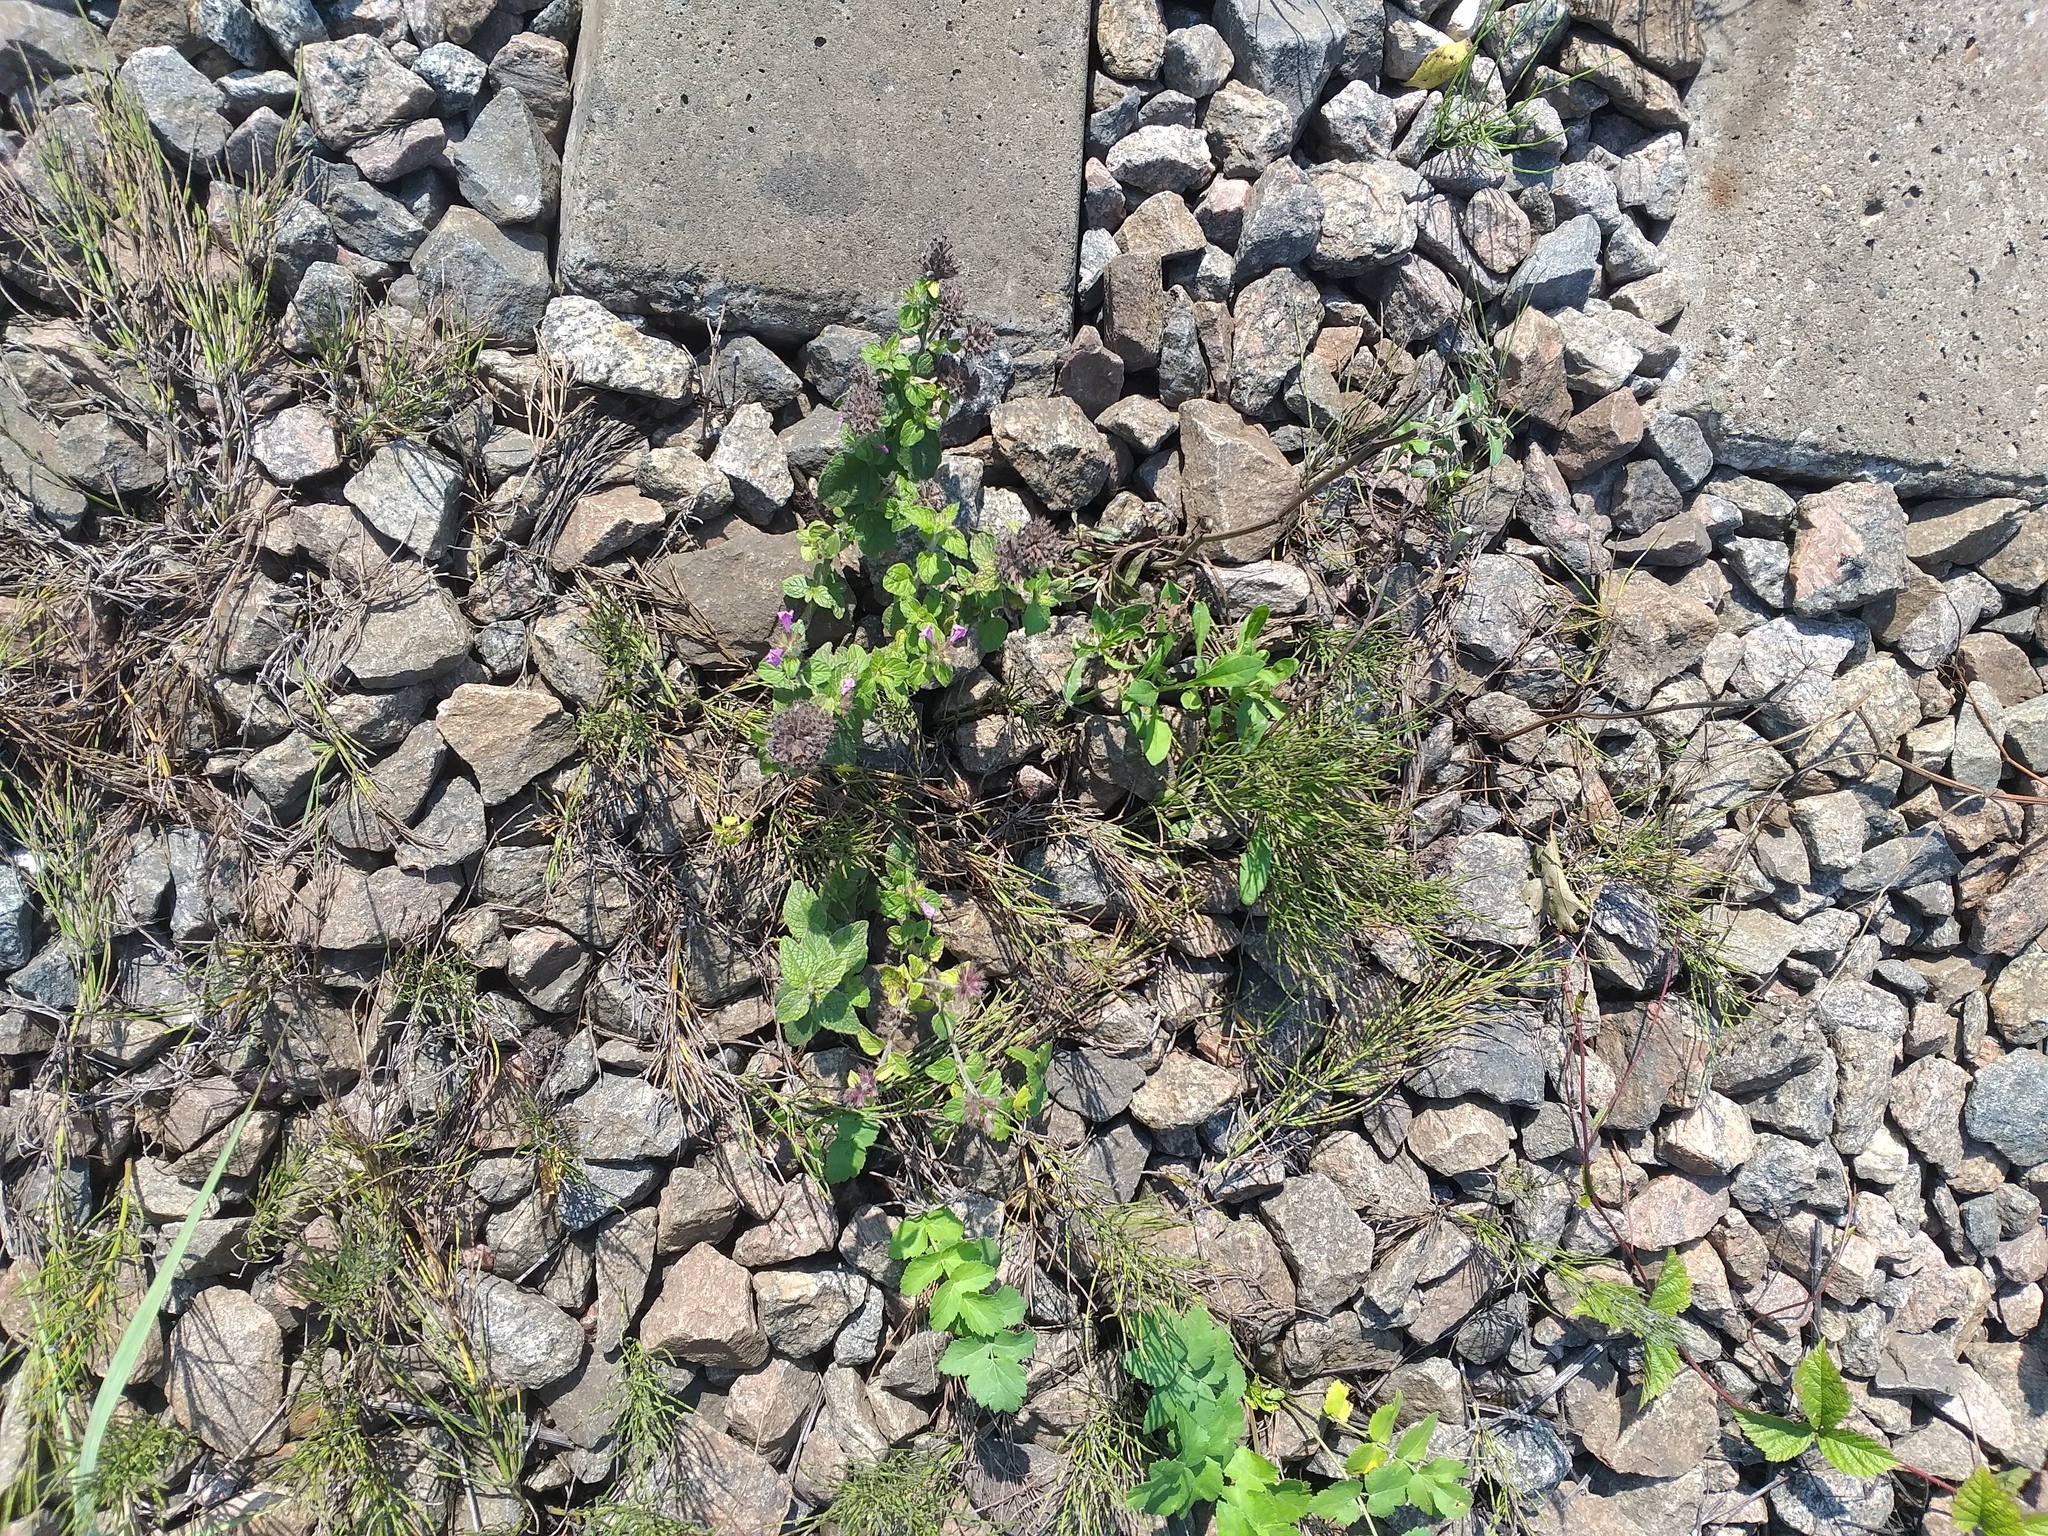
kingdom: Plantae
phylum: Tracheophyta
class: Magnoliopsida
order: Lamiales
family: Lamiaceae
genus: Clinopodium
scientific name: Clinopodium vulgare
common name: Wild basil
